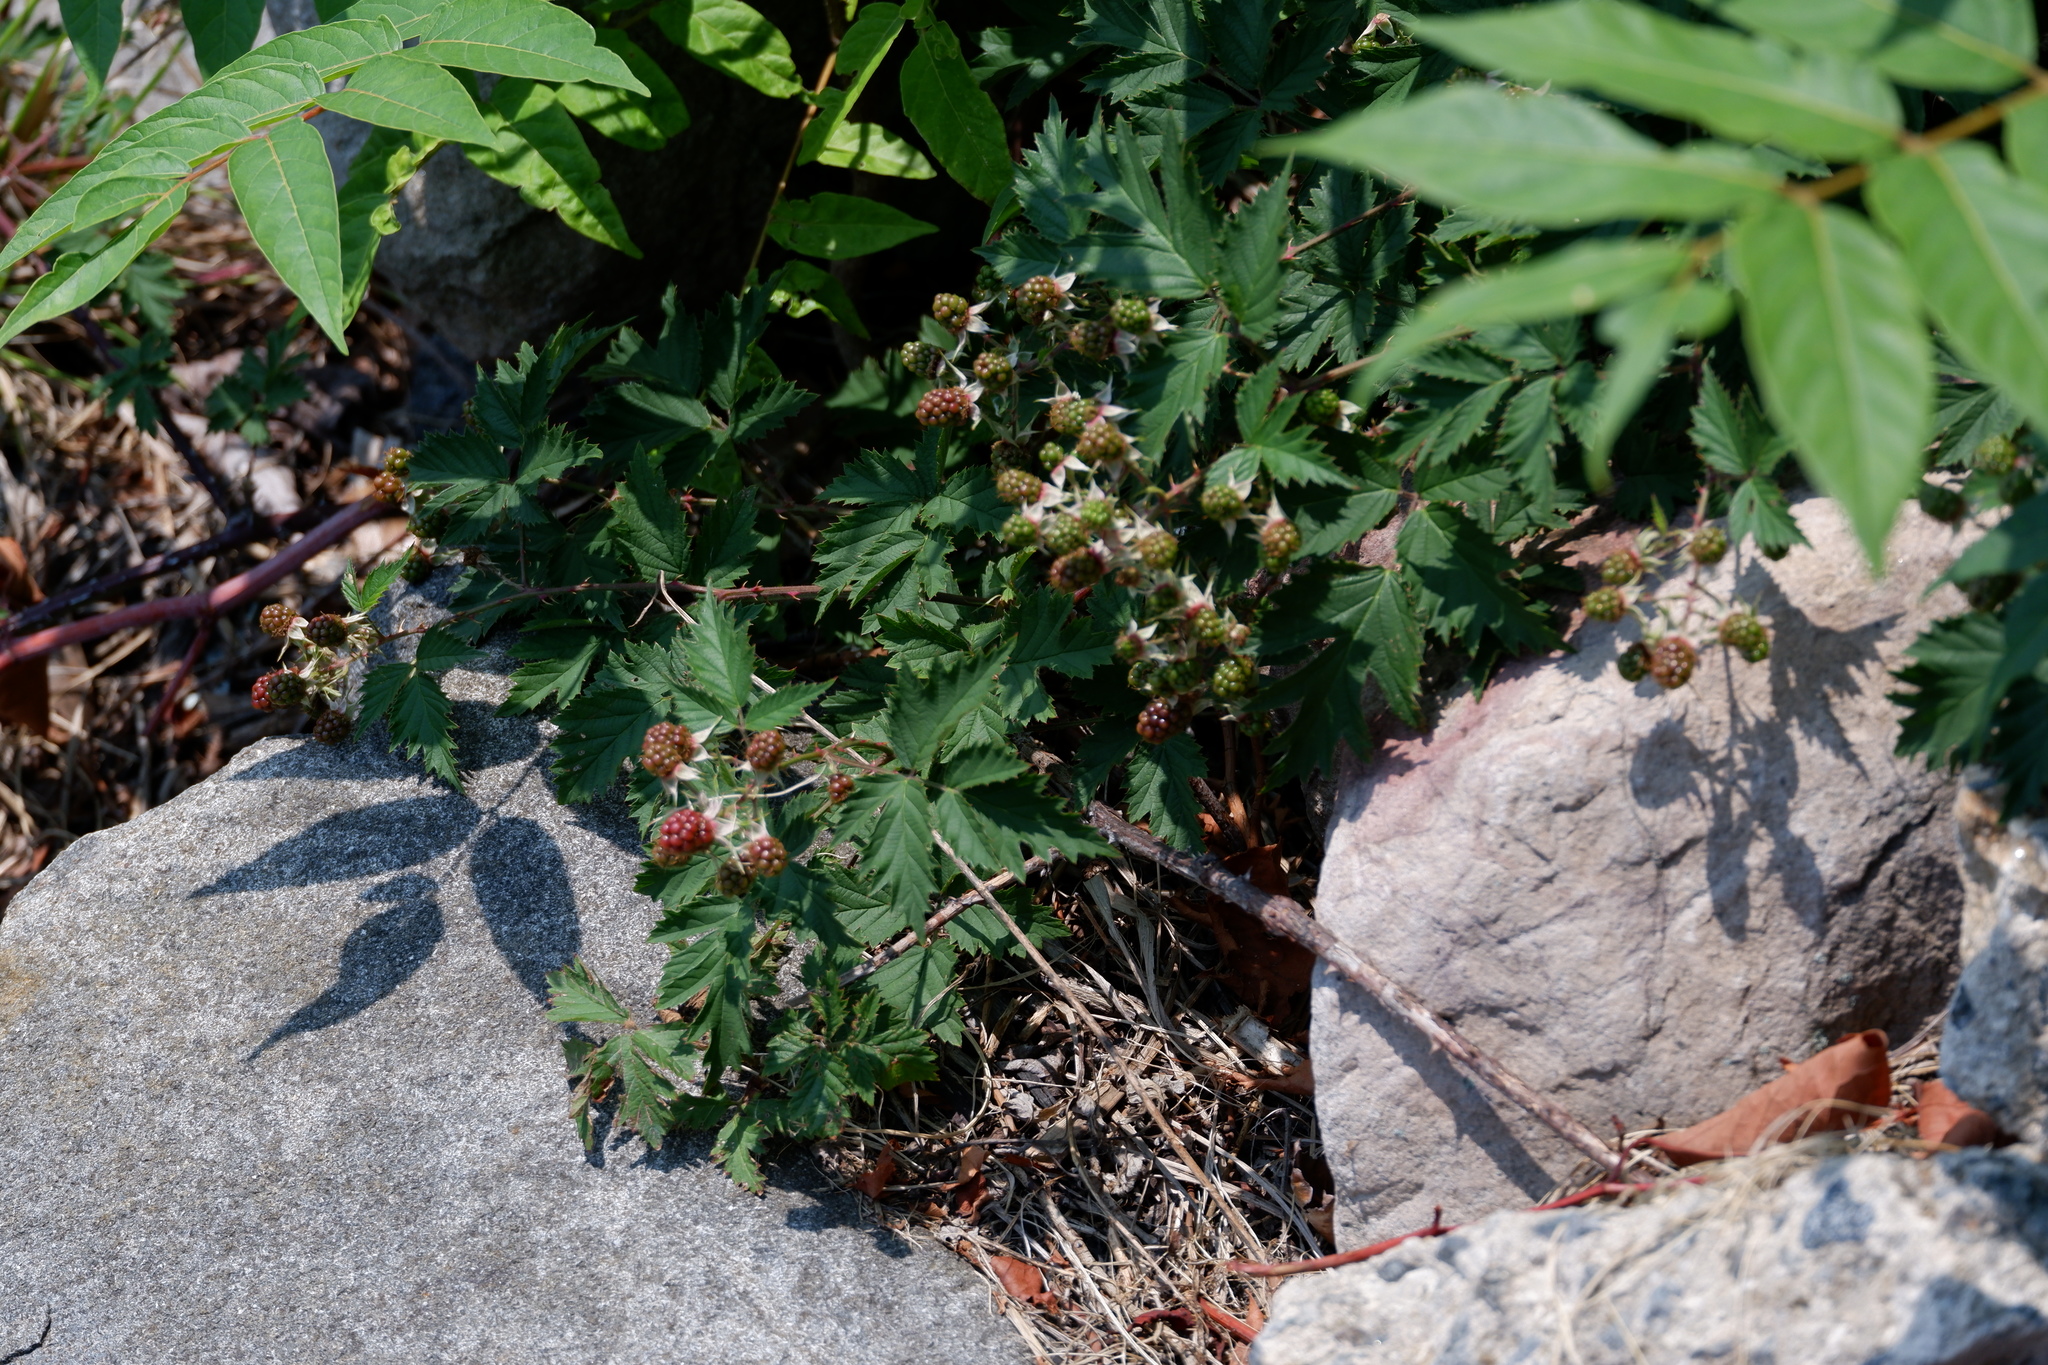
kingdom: Plantae
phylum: Tracheophyta
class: Magnoliopsida
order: Rosales
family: Rosaceae
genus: Rubus
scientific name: Rubus laciniatus
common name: Evergreen blackberry
